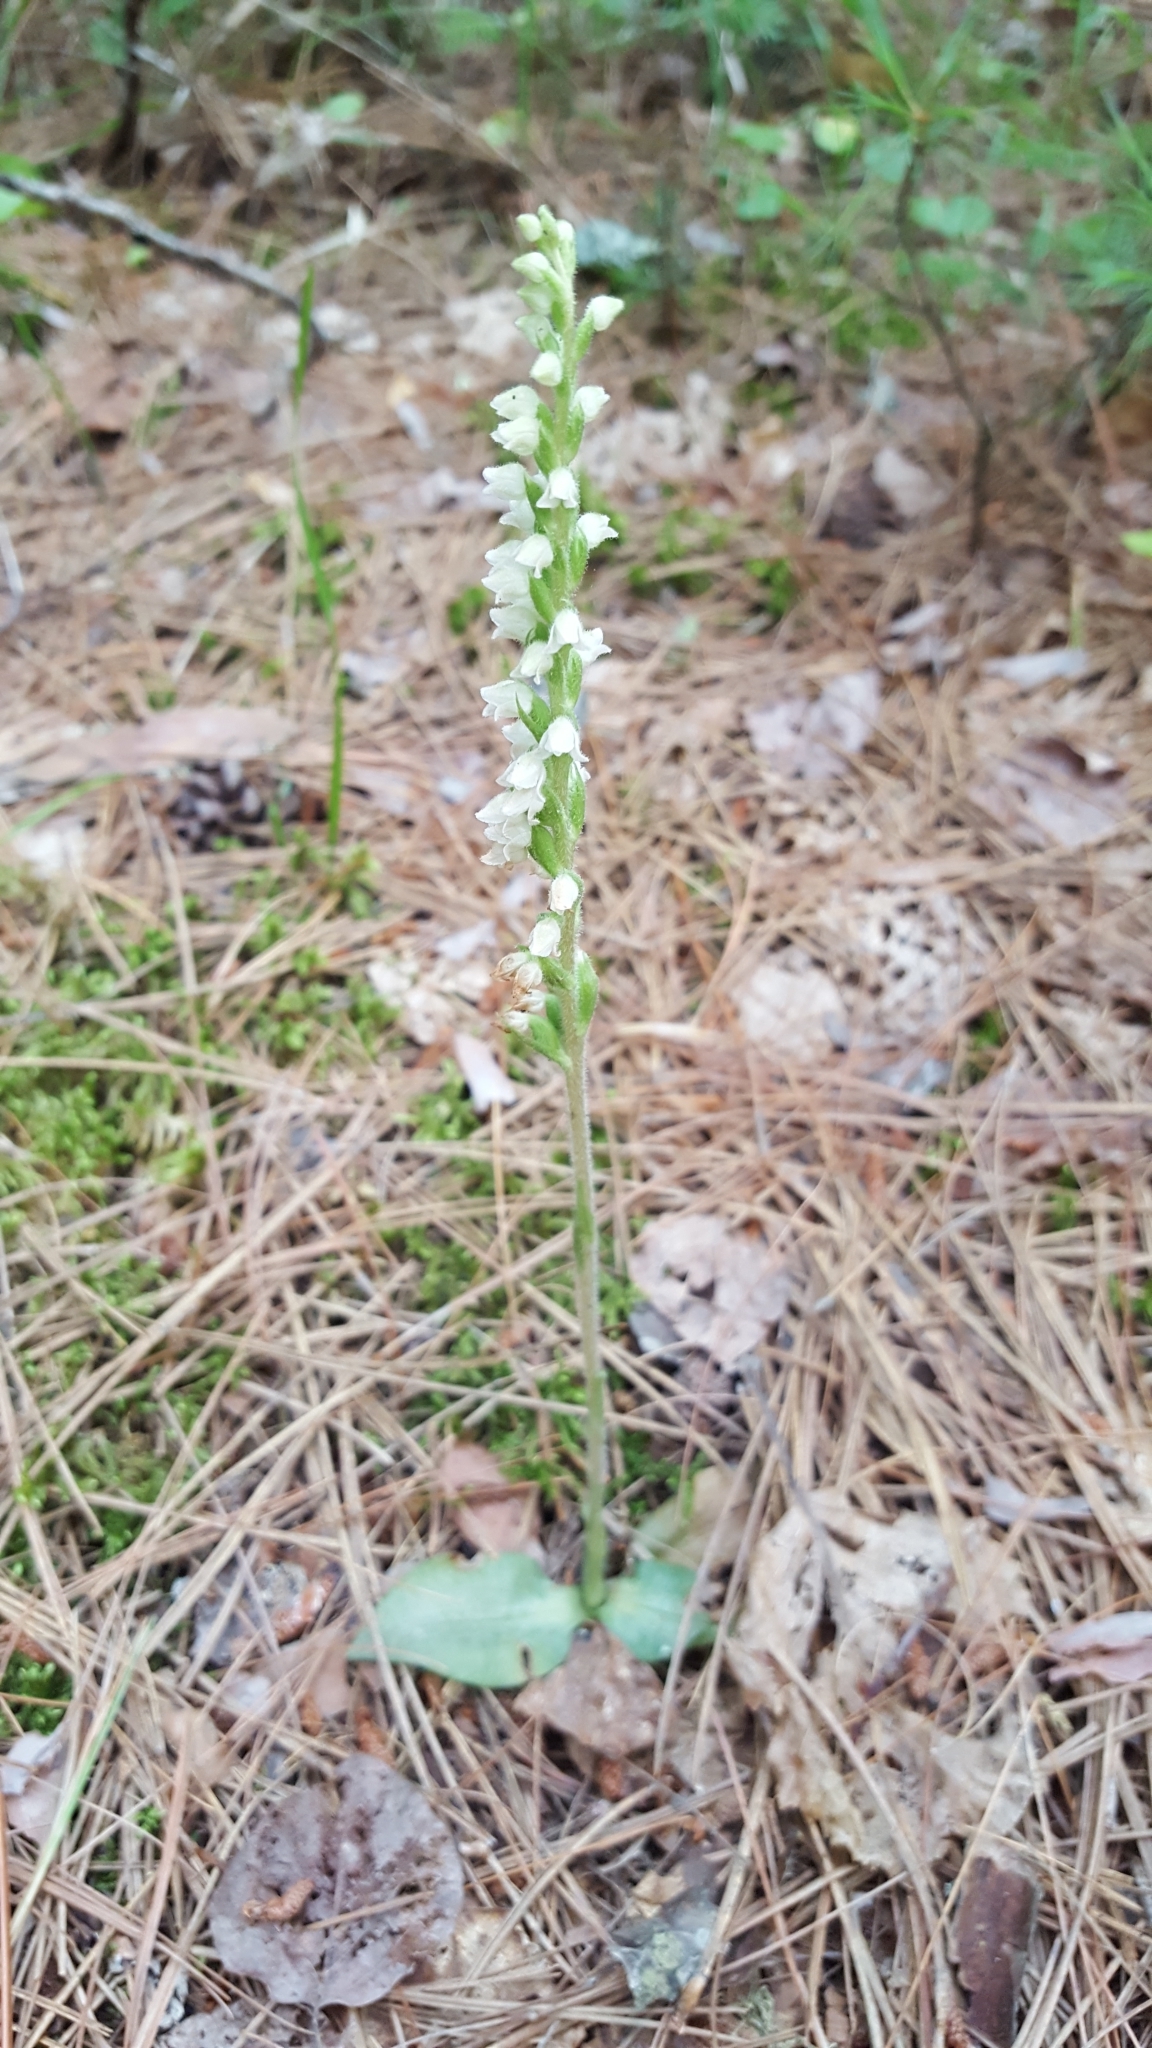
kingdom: Plantae
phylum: Tracheophyta
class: Liliopsida
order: Asparagales
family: Orchidaceae
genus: Goodyera
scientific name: Goodyera tesselata
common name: Checkered rattlesnake-plantain
